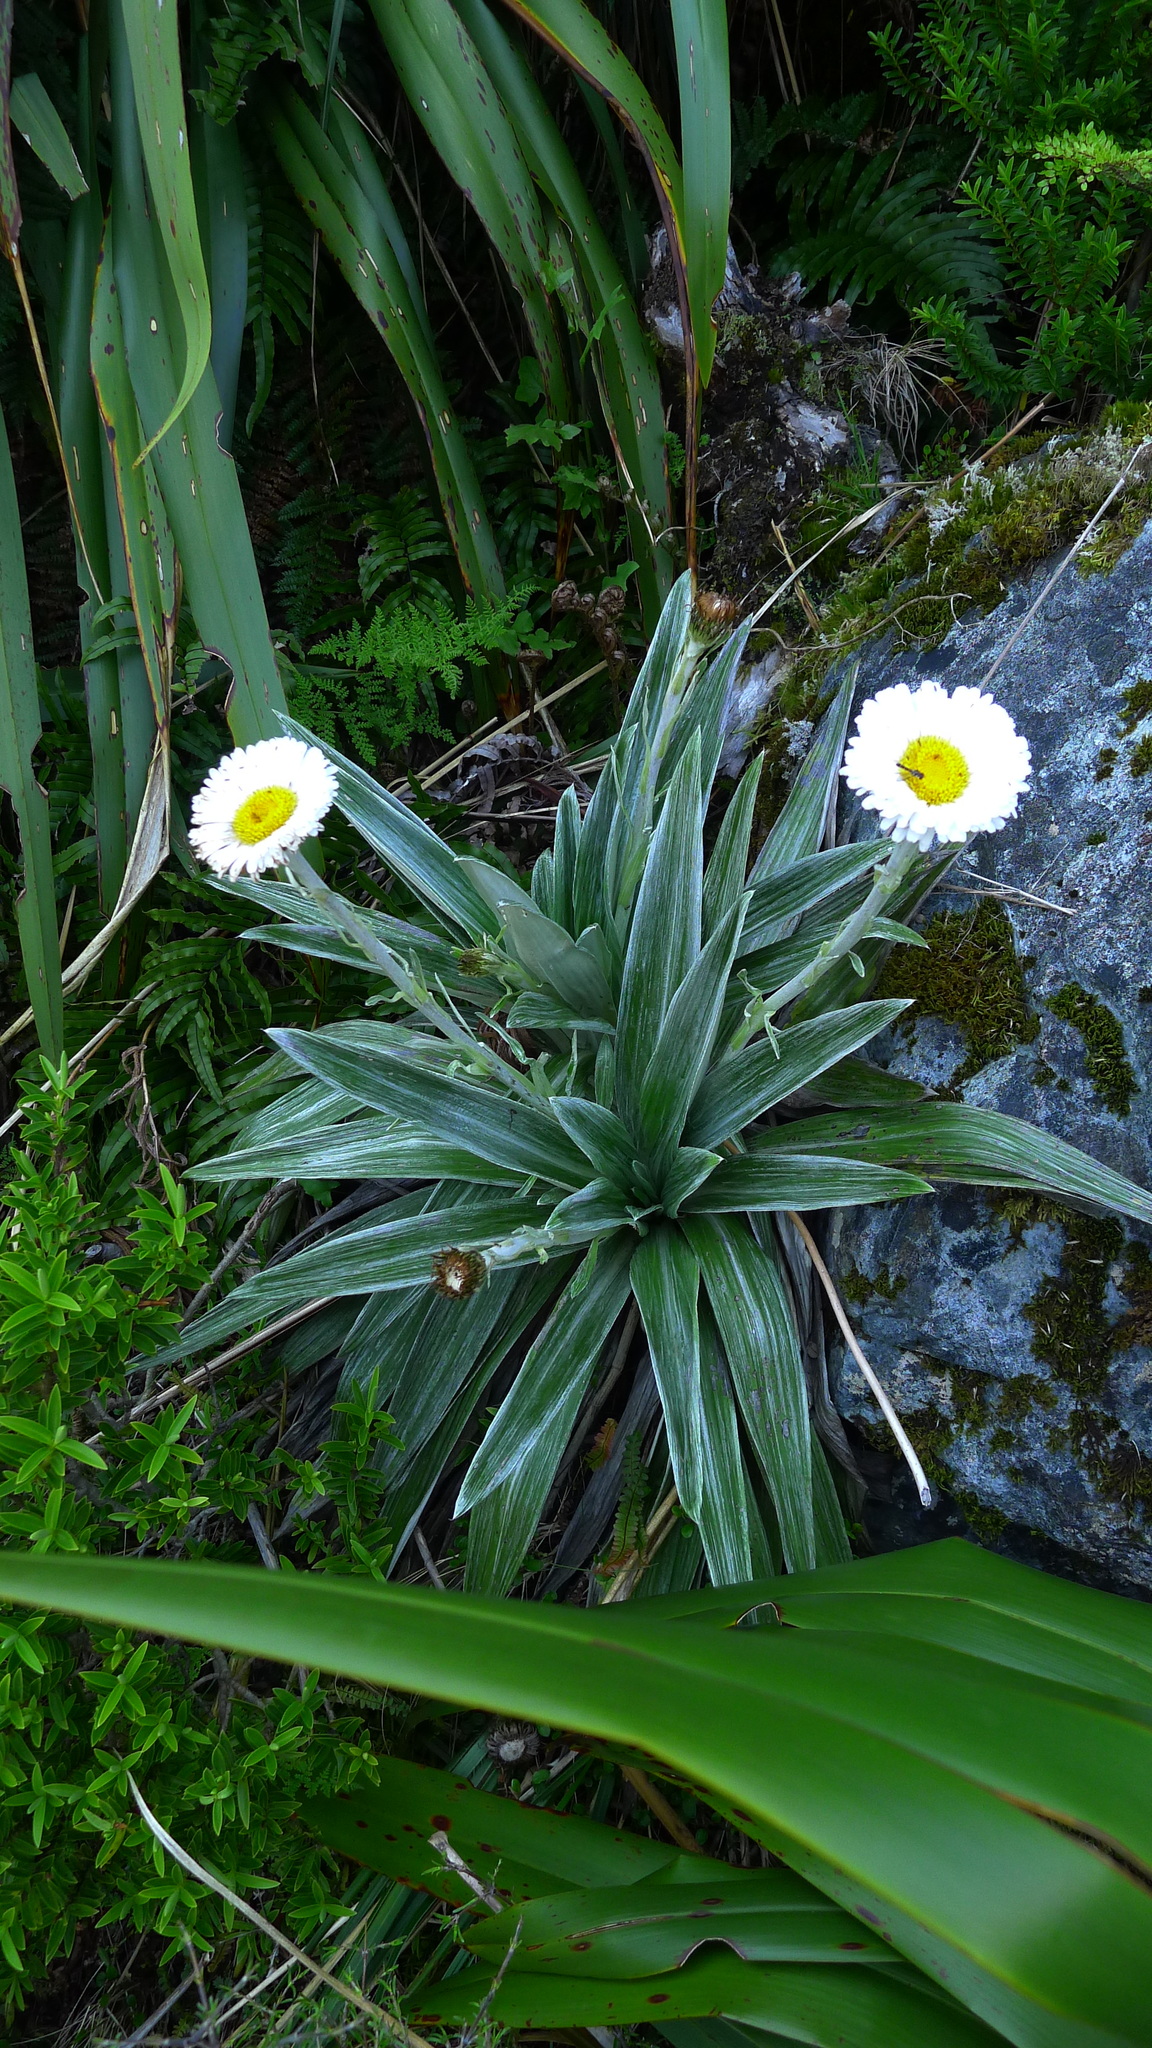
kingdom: Plantae
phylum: Tracheophyta
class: Magnoliopsida
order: Asterales
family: Asteraceae
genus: Celmisia
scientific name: Celmisia semicordata
